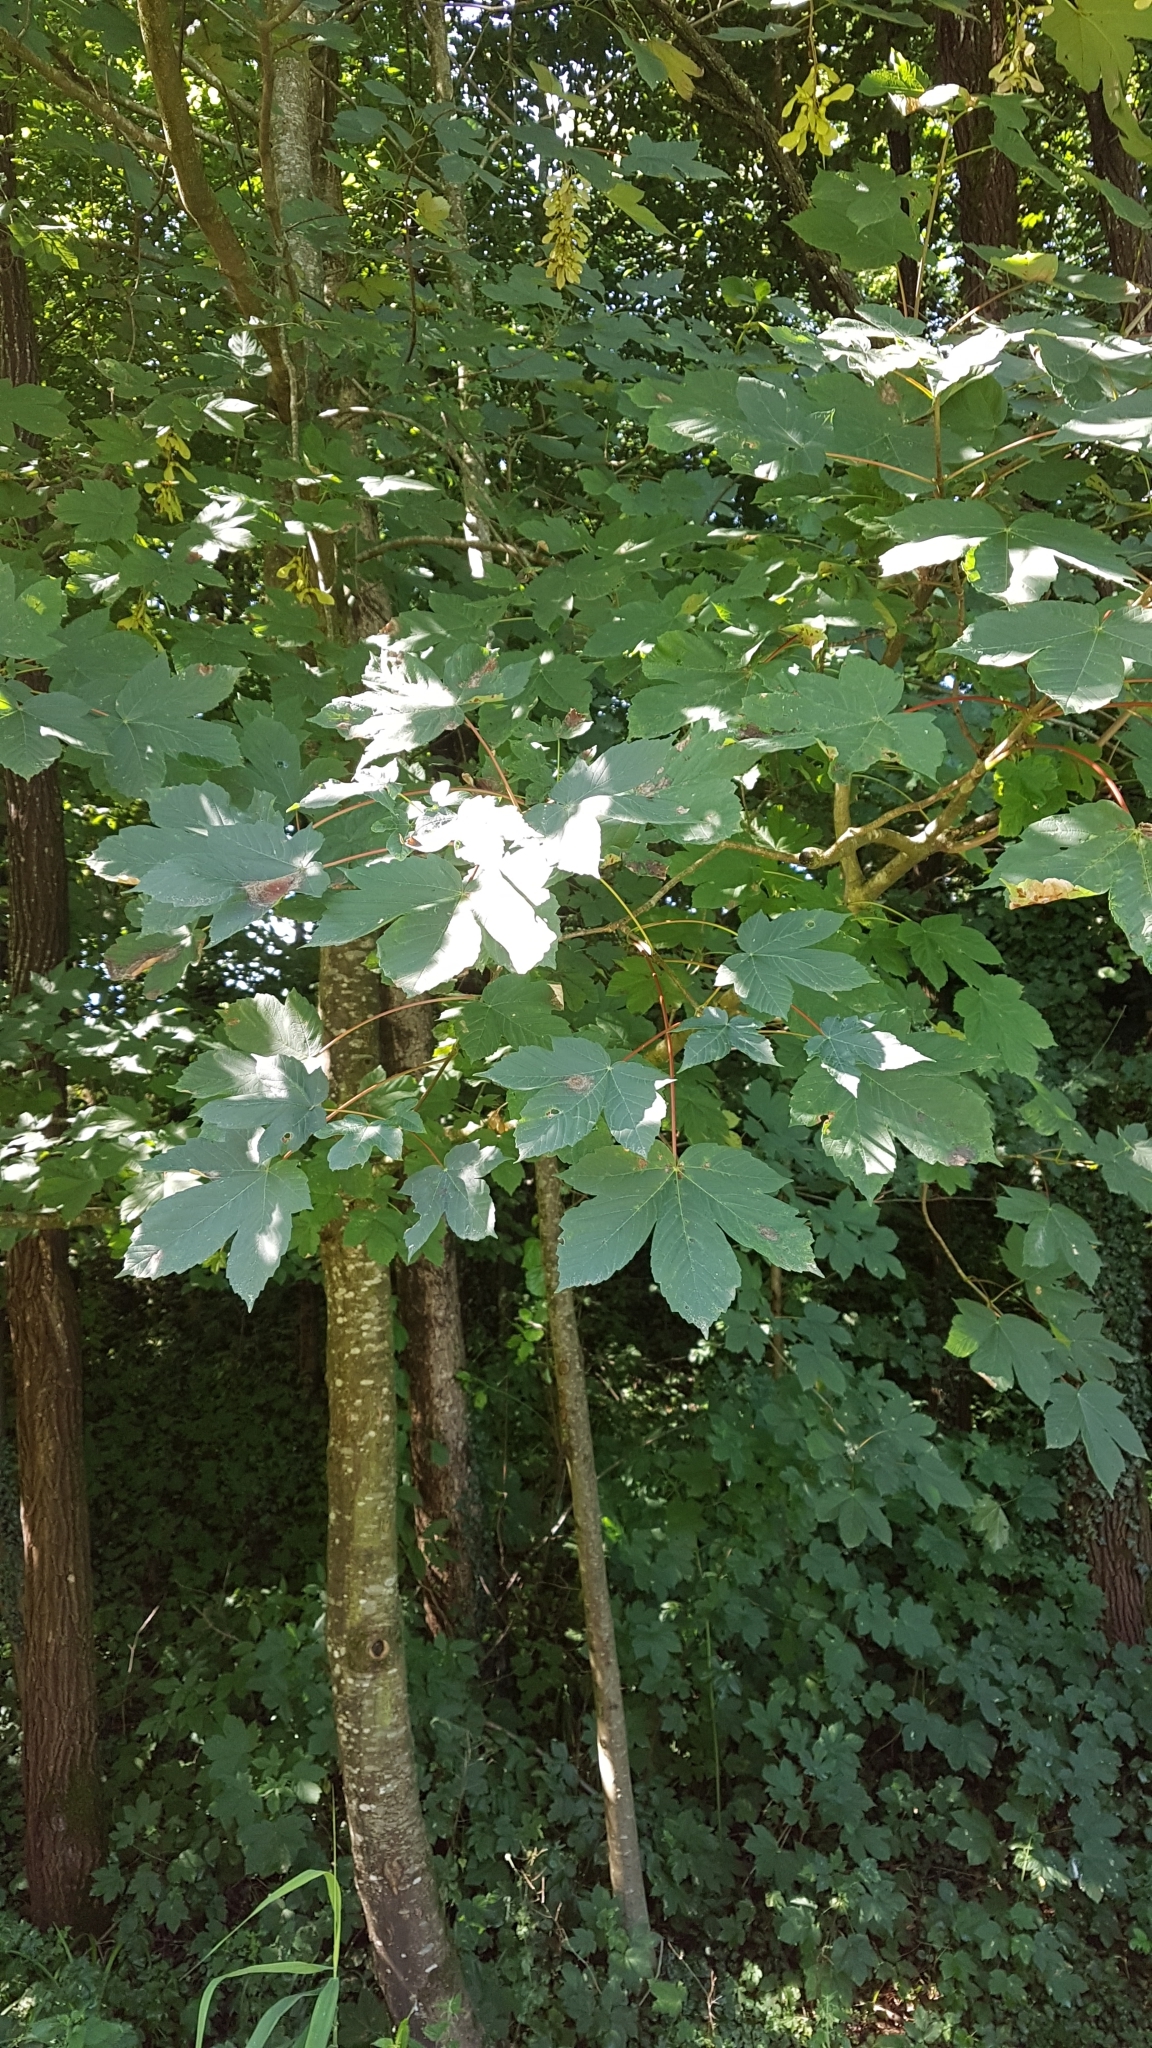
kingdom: Plantae
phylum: Tracheophyta
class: Magnoliopsida
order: Sapindales
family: Sapindaceae
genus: Acer
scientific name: Acer pseudoplatanus
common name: Sycamore
